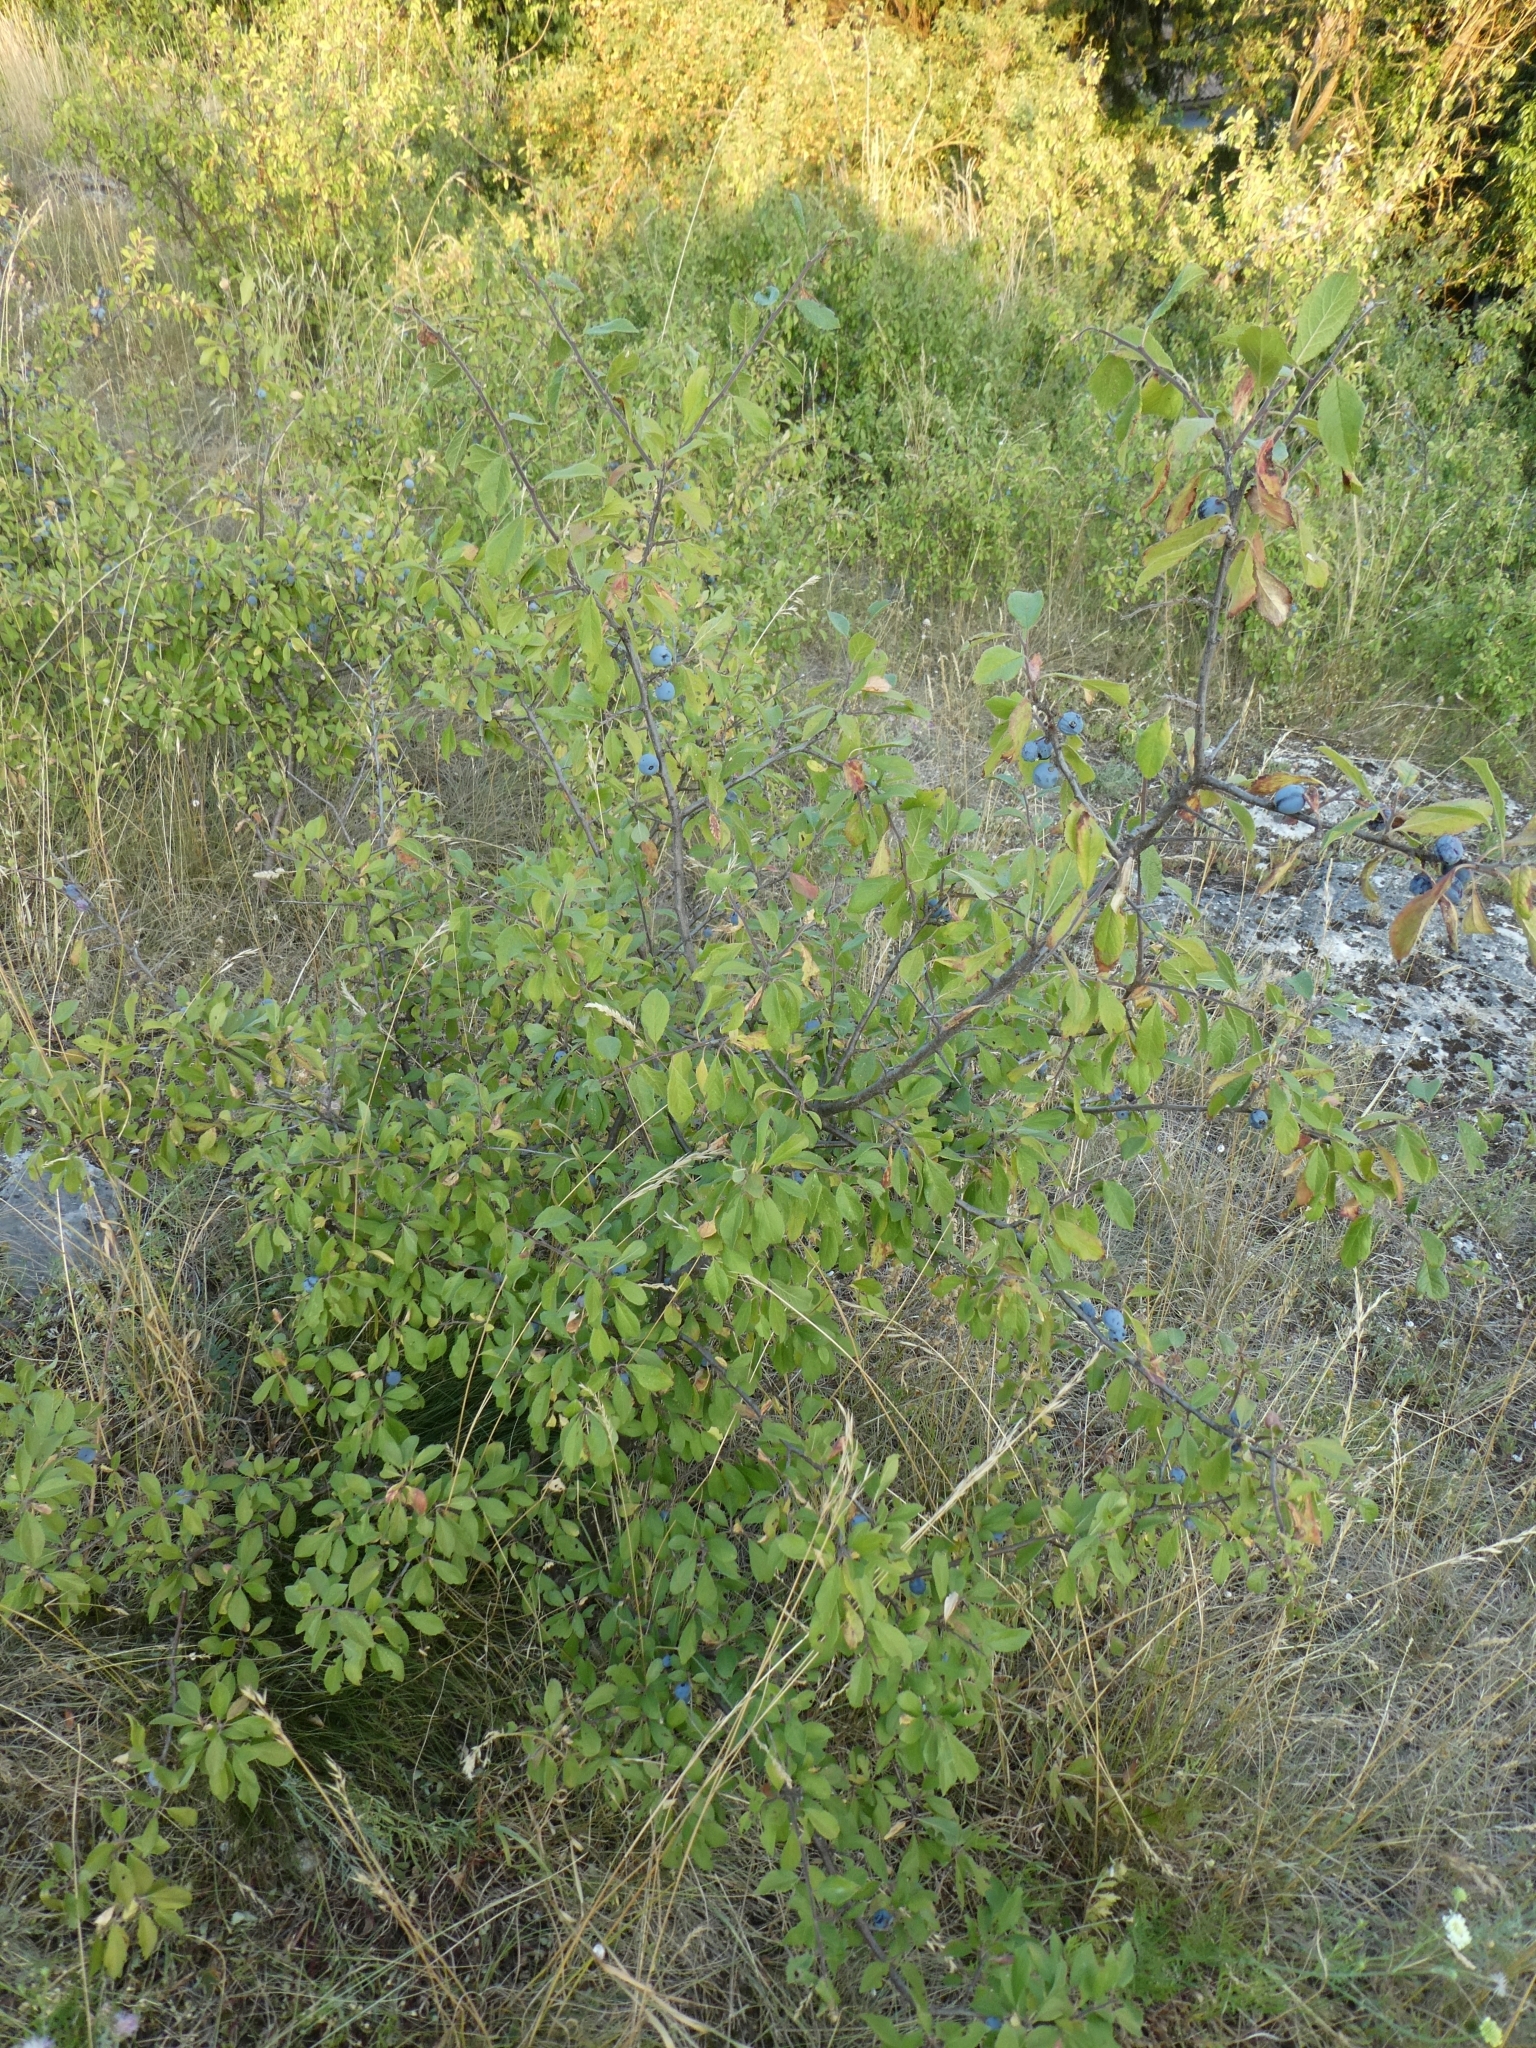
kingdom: Plantae
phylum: Tracheophyta
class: Magnoliopsida
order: Rosales
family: Rosaceae
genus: Prunus
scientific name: Prunus spinosa
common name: Blackthorn
